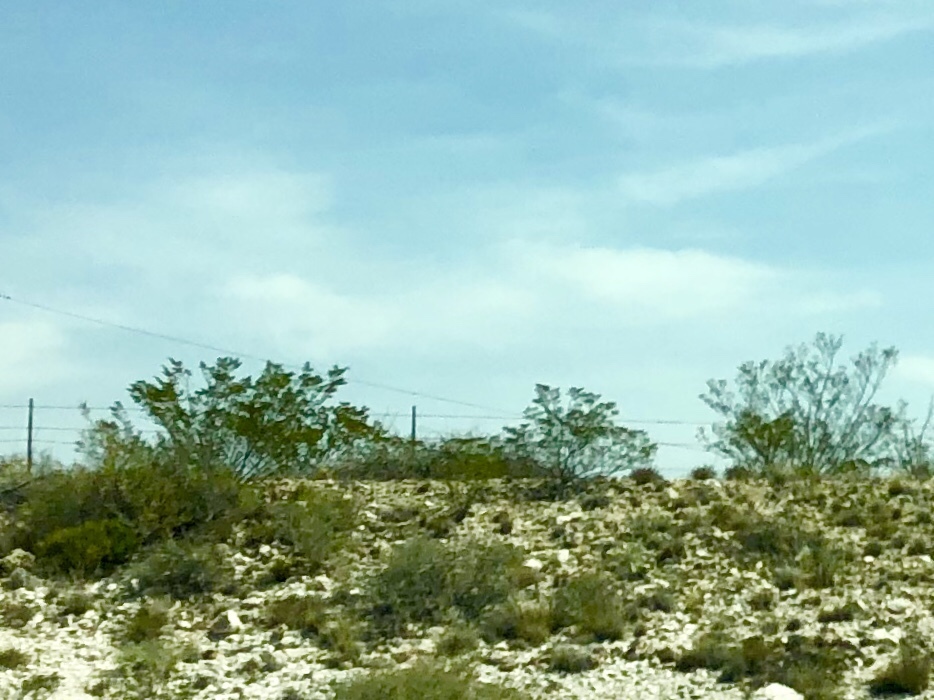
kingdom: Plantae
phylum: Tracheophyta
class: Magnoliopsida
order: Zygophyllales
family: Zygophyllaceae
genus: Larrea
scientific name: Larrea tridentata
